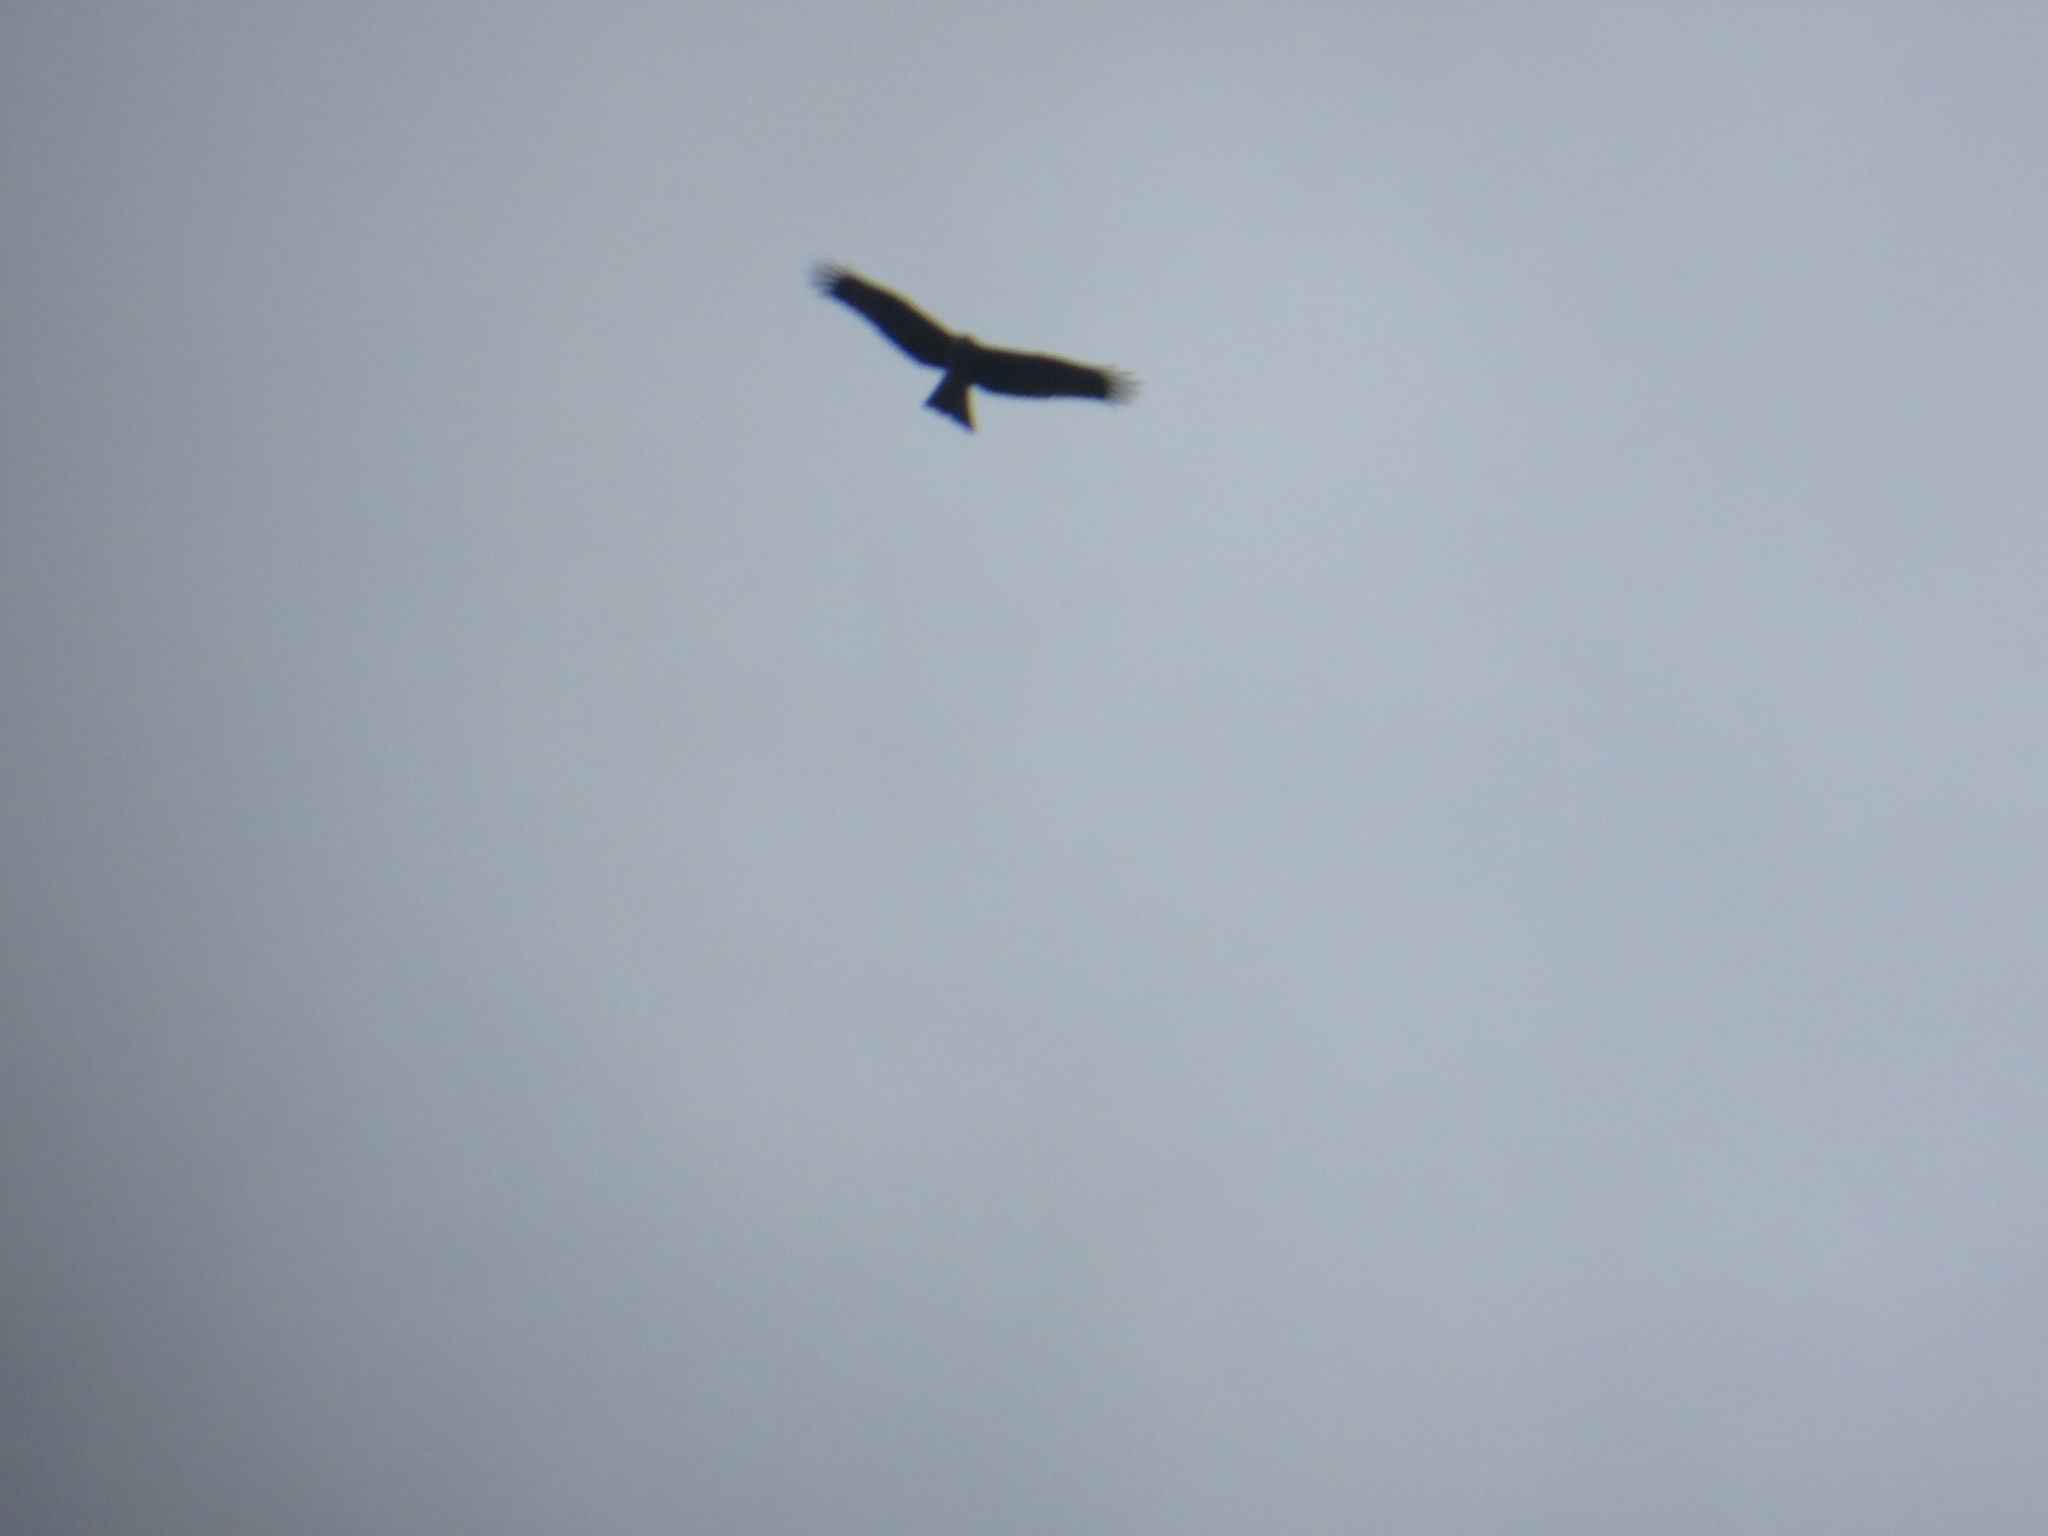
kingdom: Animalia
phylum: Chordata
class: Aves
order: Accipitriformes
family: Accipitridae
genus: Milvus
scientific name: Milvus migrans
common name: Black kite
